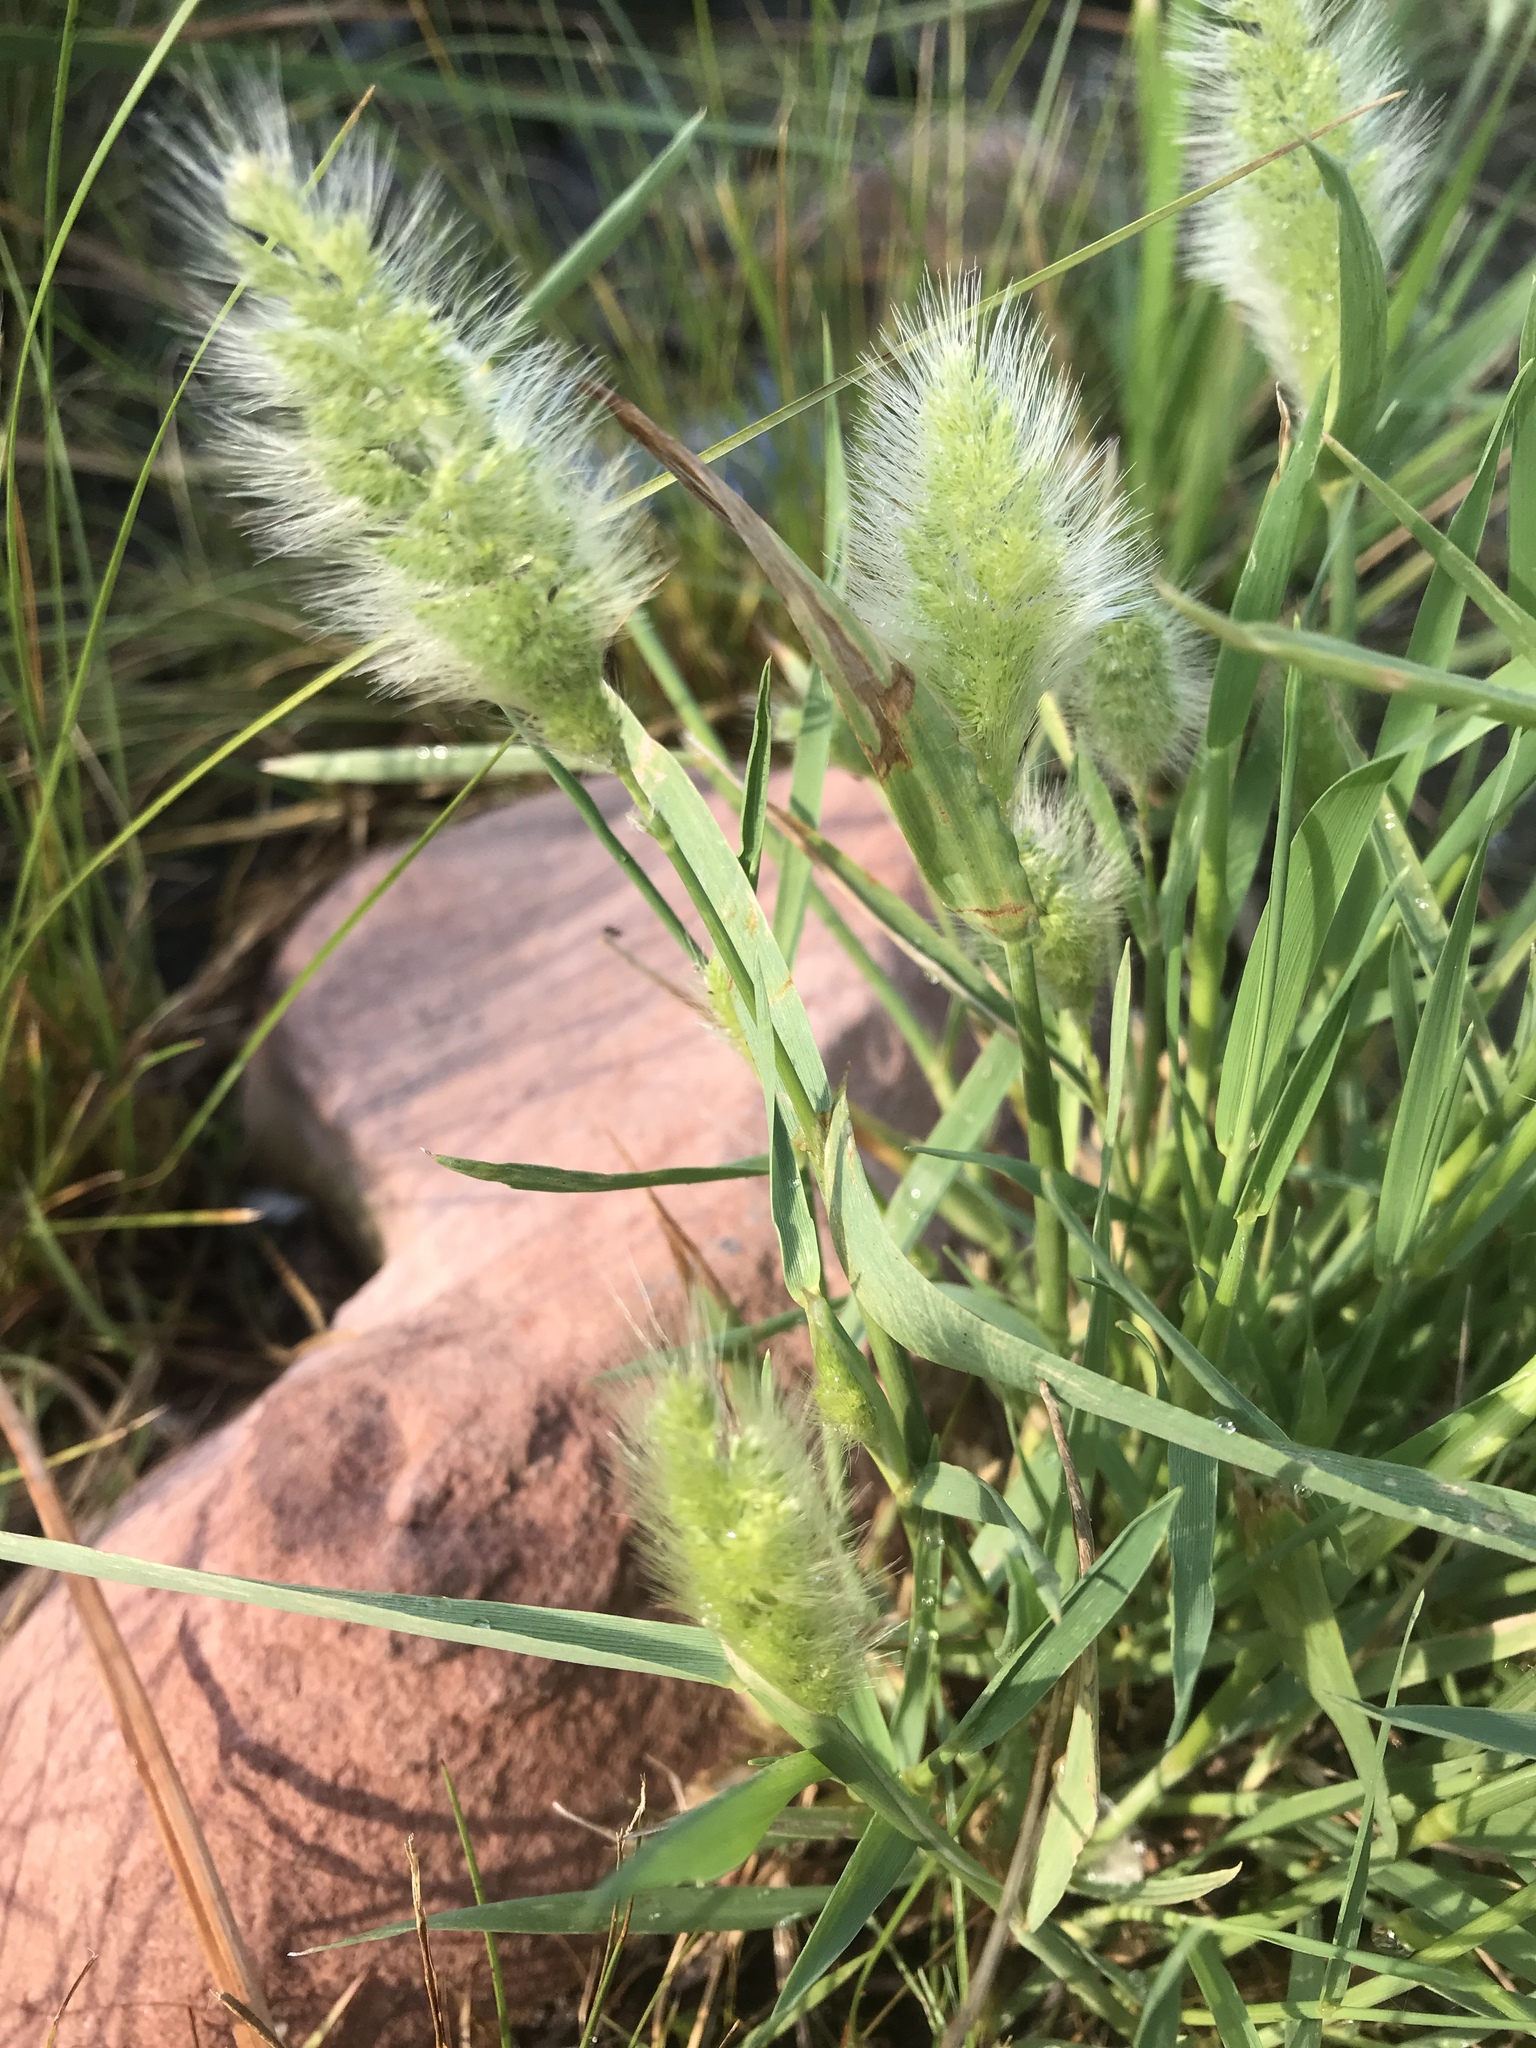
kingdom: Plantae
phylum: Tracheophyta
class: Liliopsida
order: Poales
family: Poaceae
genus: Polypogon
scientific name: Polypogon monspeliensis
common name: Annual rabbitsfoot grass
